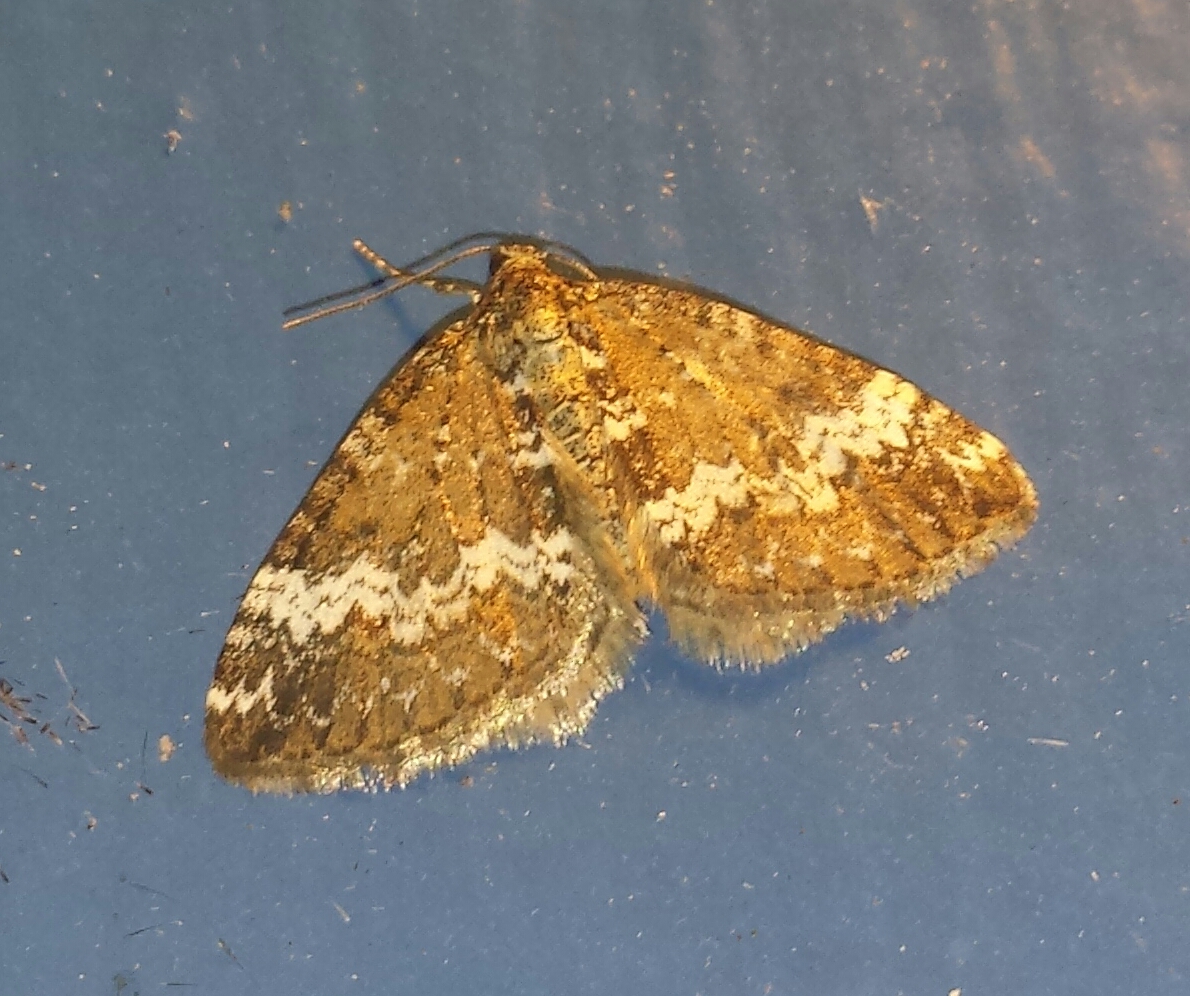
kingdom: Animalia
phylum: Arthropoda
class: Insecta
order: Lepidoptera
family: Geometridae
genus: Perizoma
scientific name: Perizoma alchemillata
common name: Small rivulet
